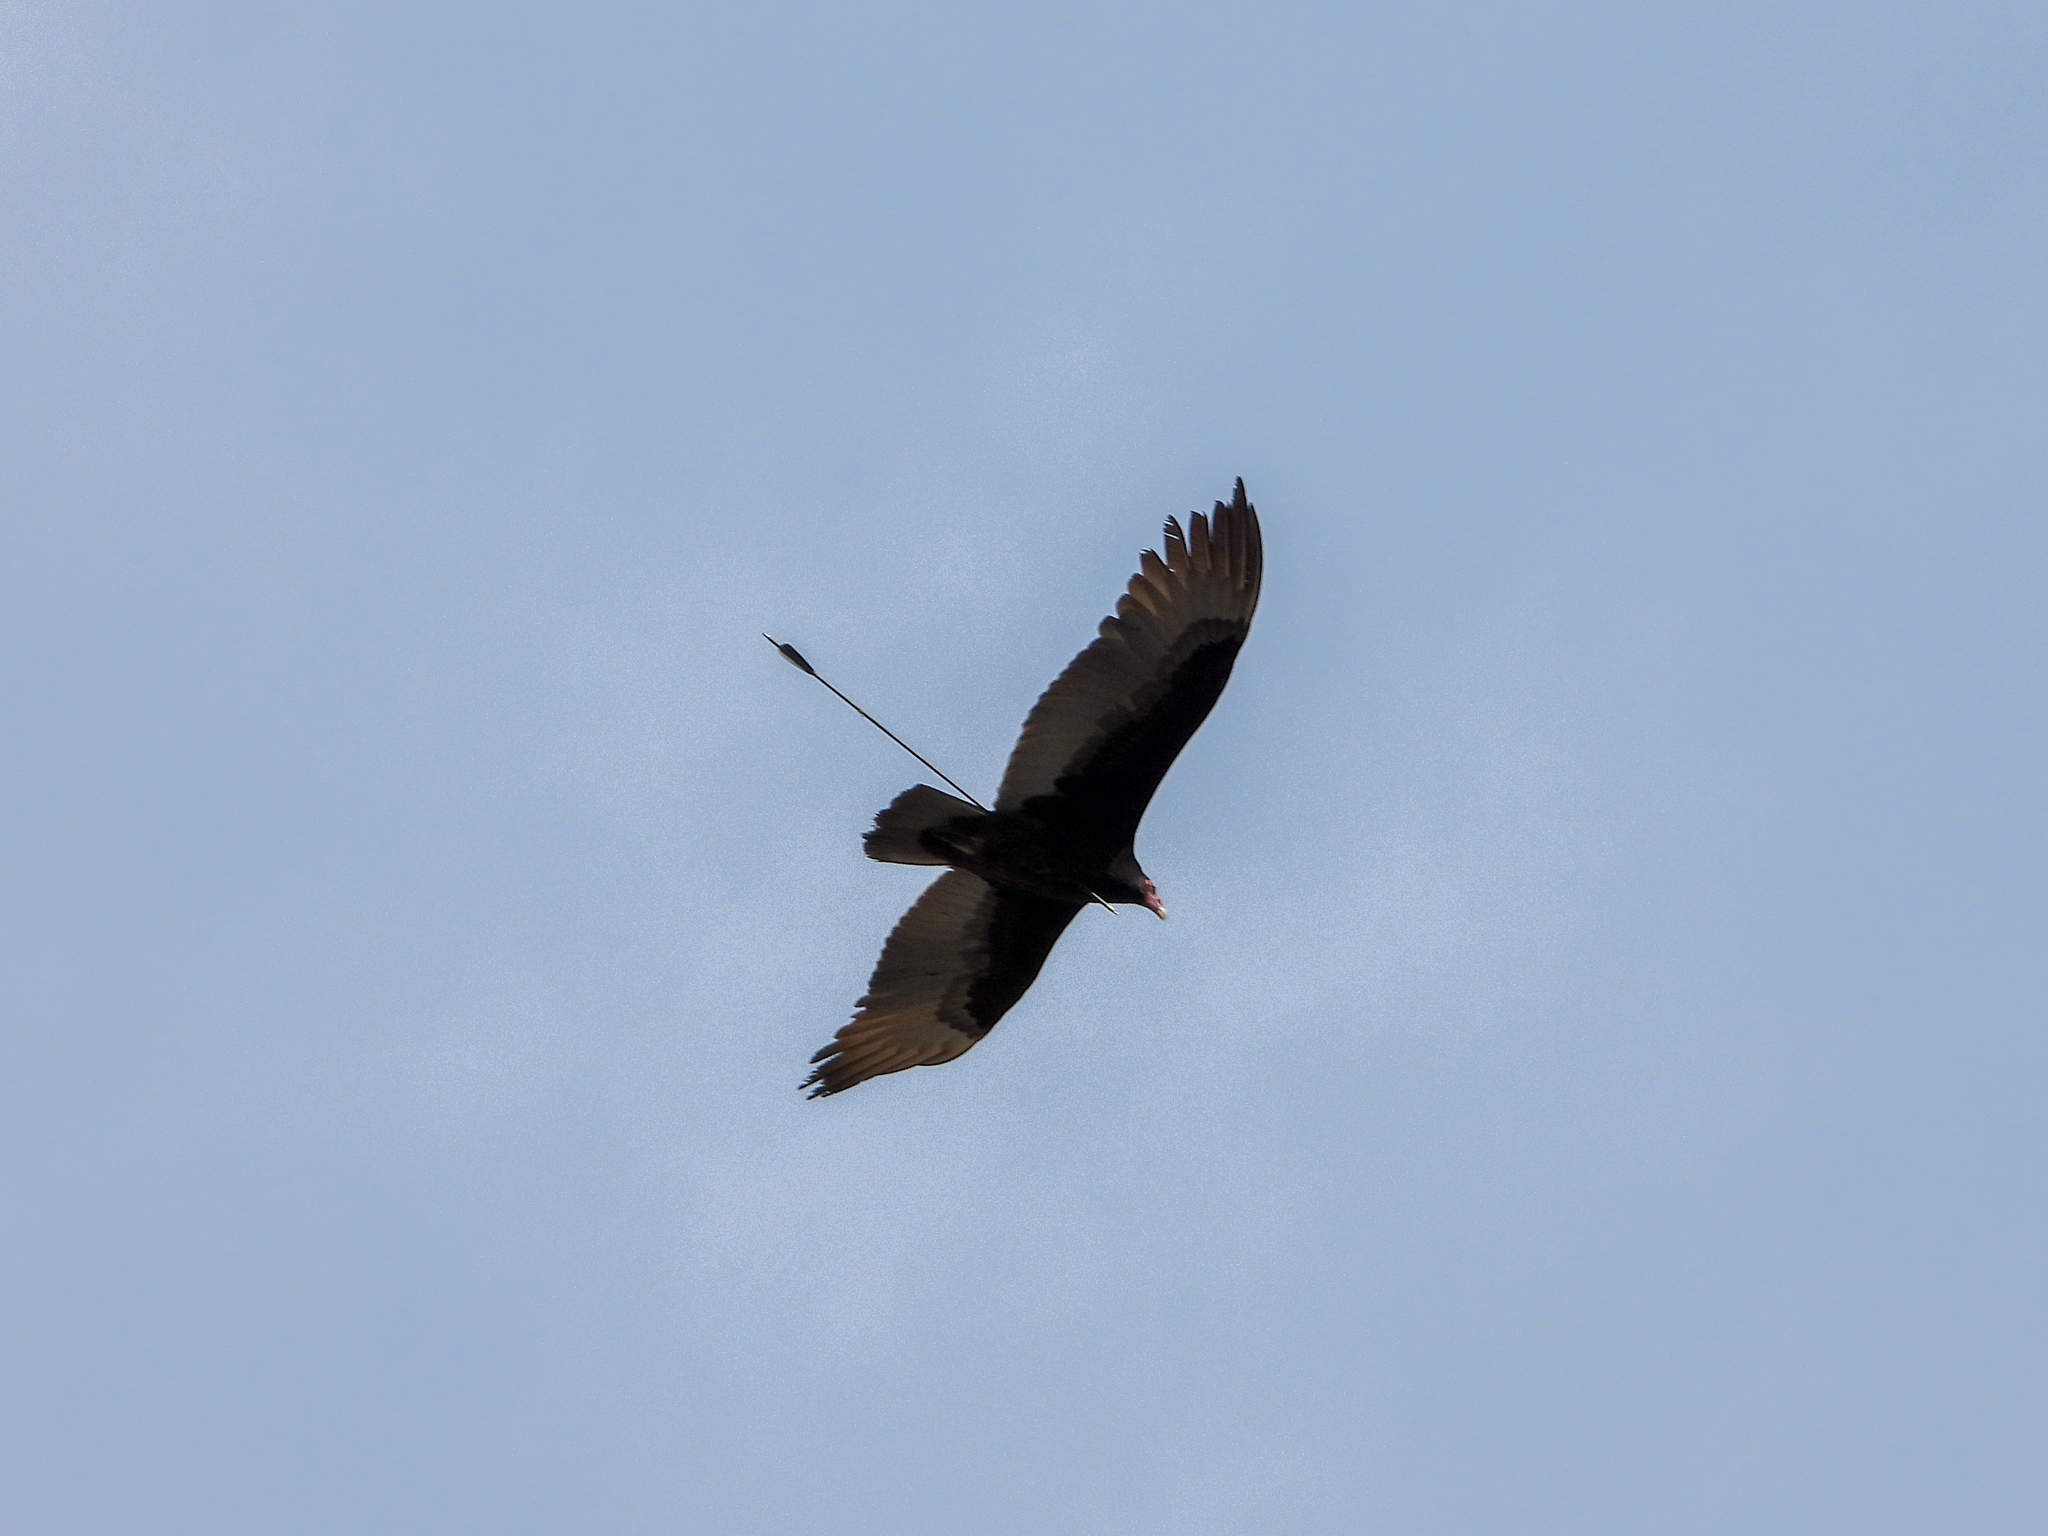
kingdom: Animalia
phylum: Chordata
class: Aves
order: Accipitriformes
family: Cathartidae
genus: Cathartes
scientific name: Cathartes aura
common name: Turkey vulture
